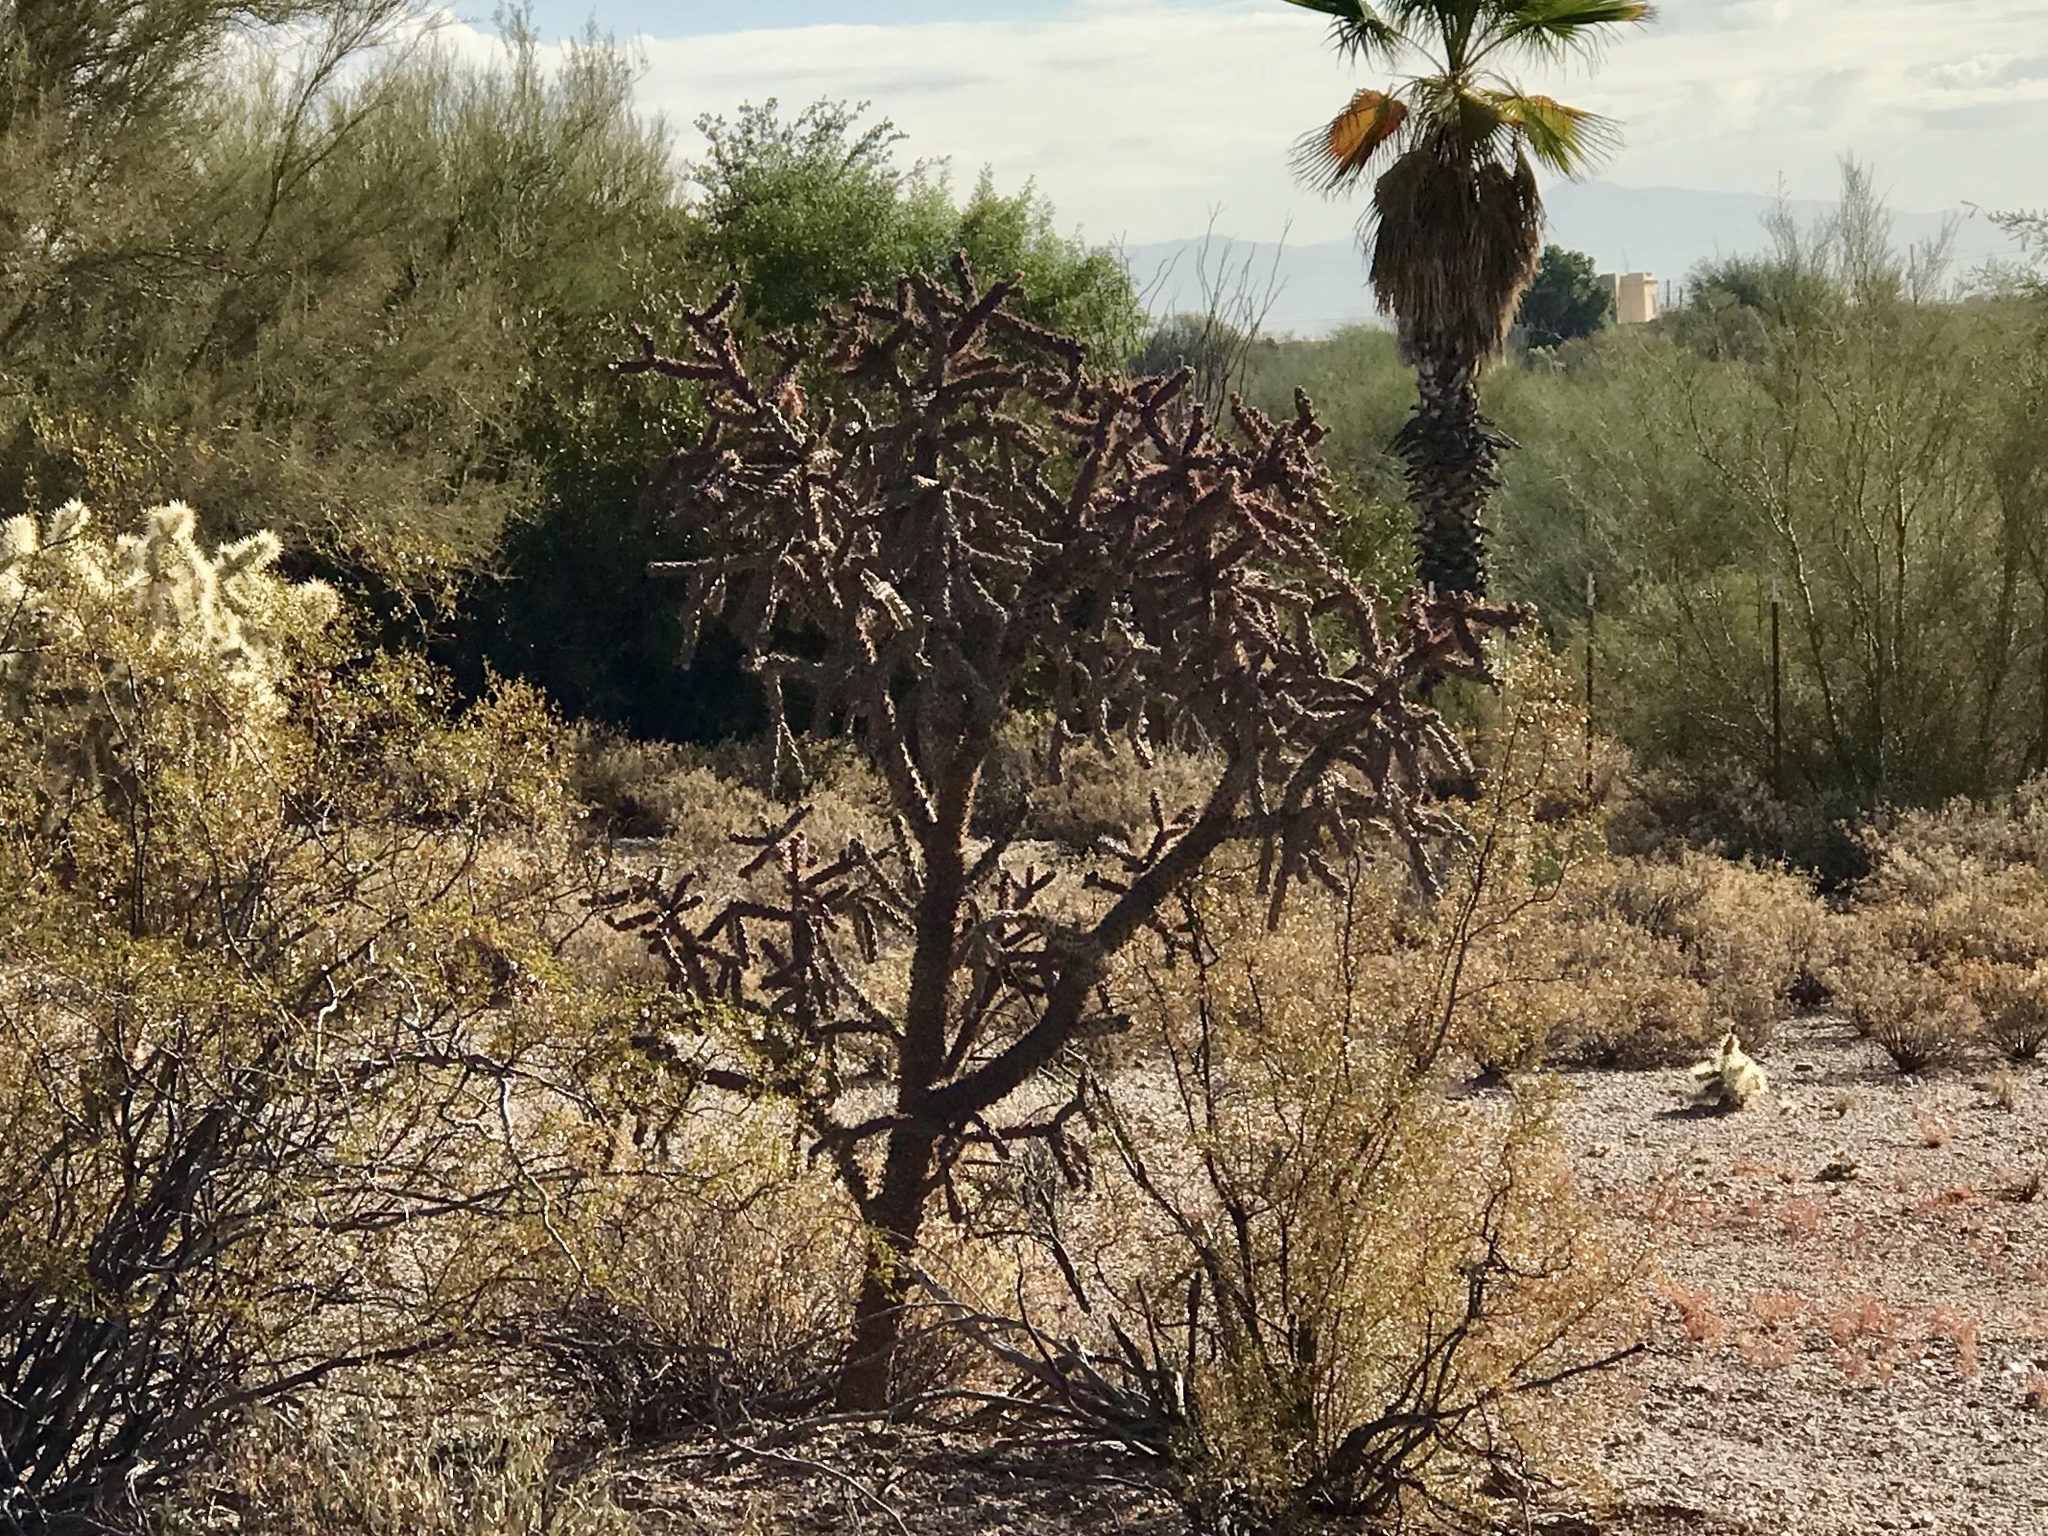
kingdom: Plantae
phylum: Tracheophyta
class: Magnoliopsida
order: Caryophyllales
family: Cactaceae
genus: Cylindropuntia
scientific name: Cylindropuntia thurberi
